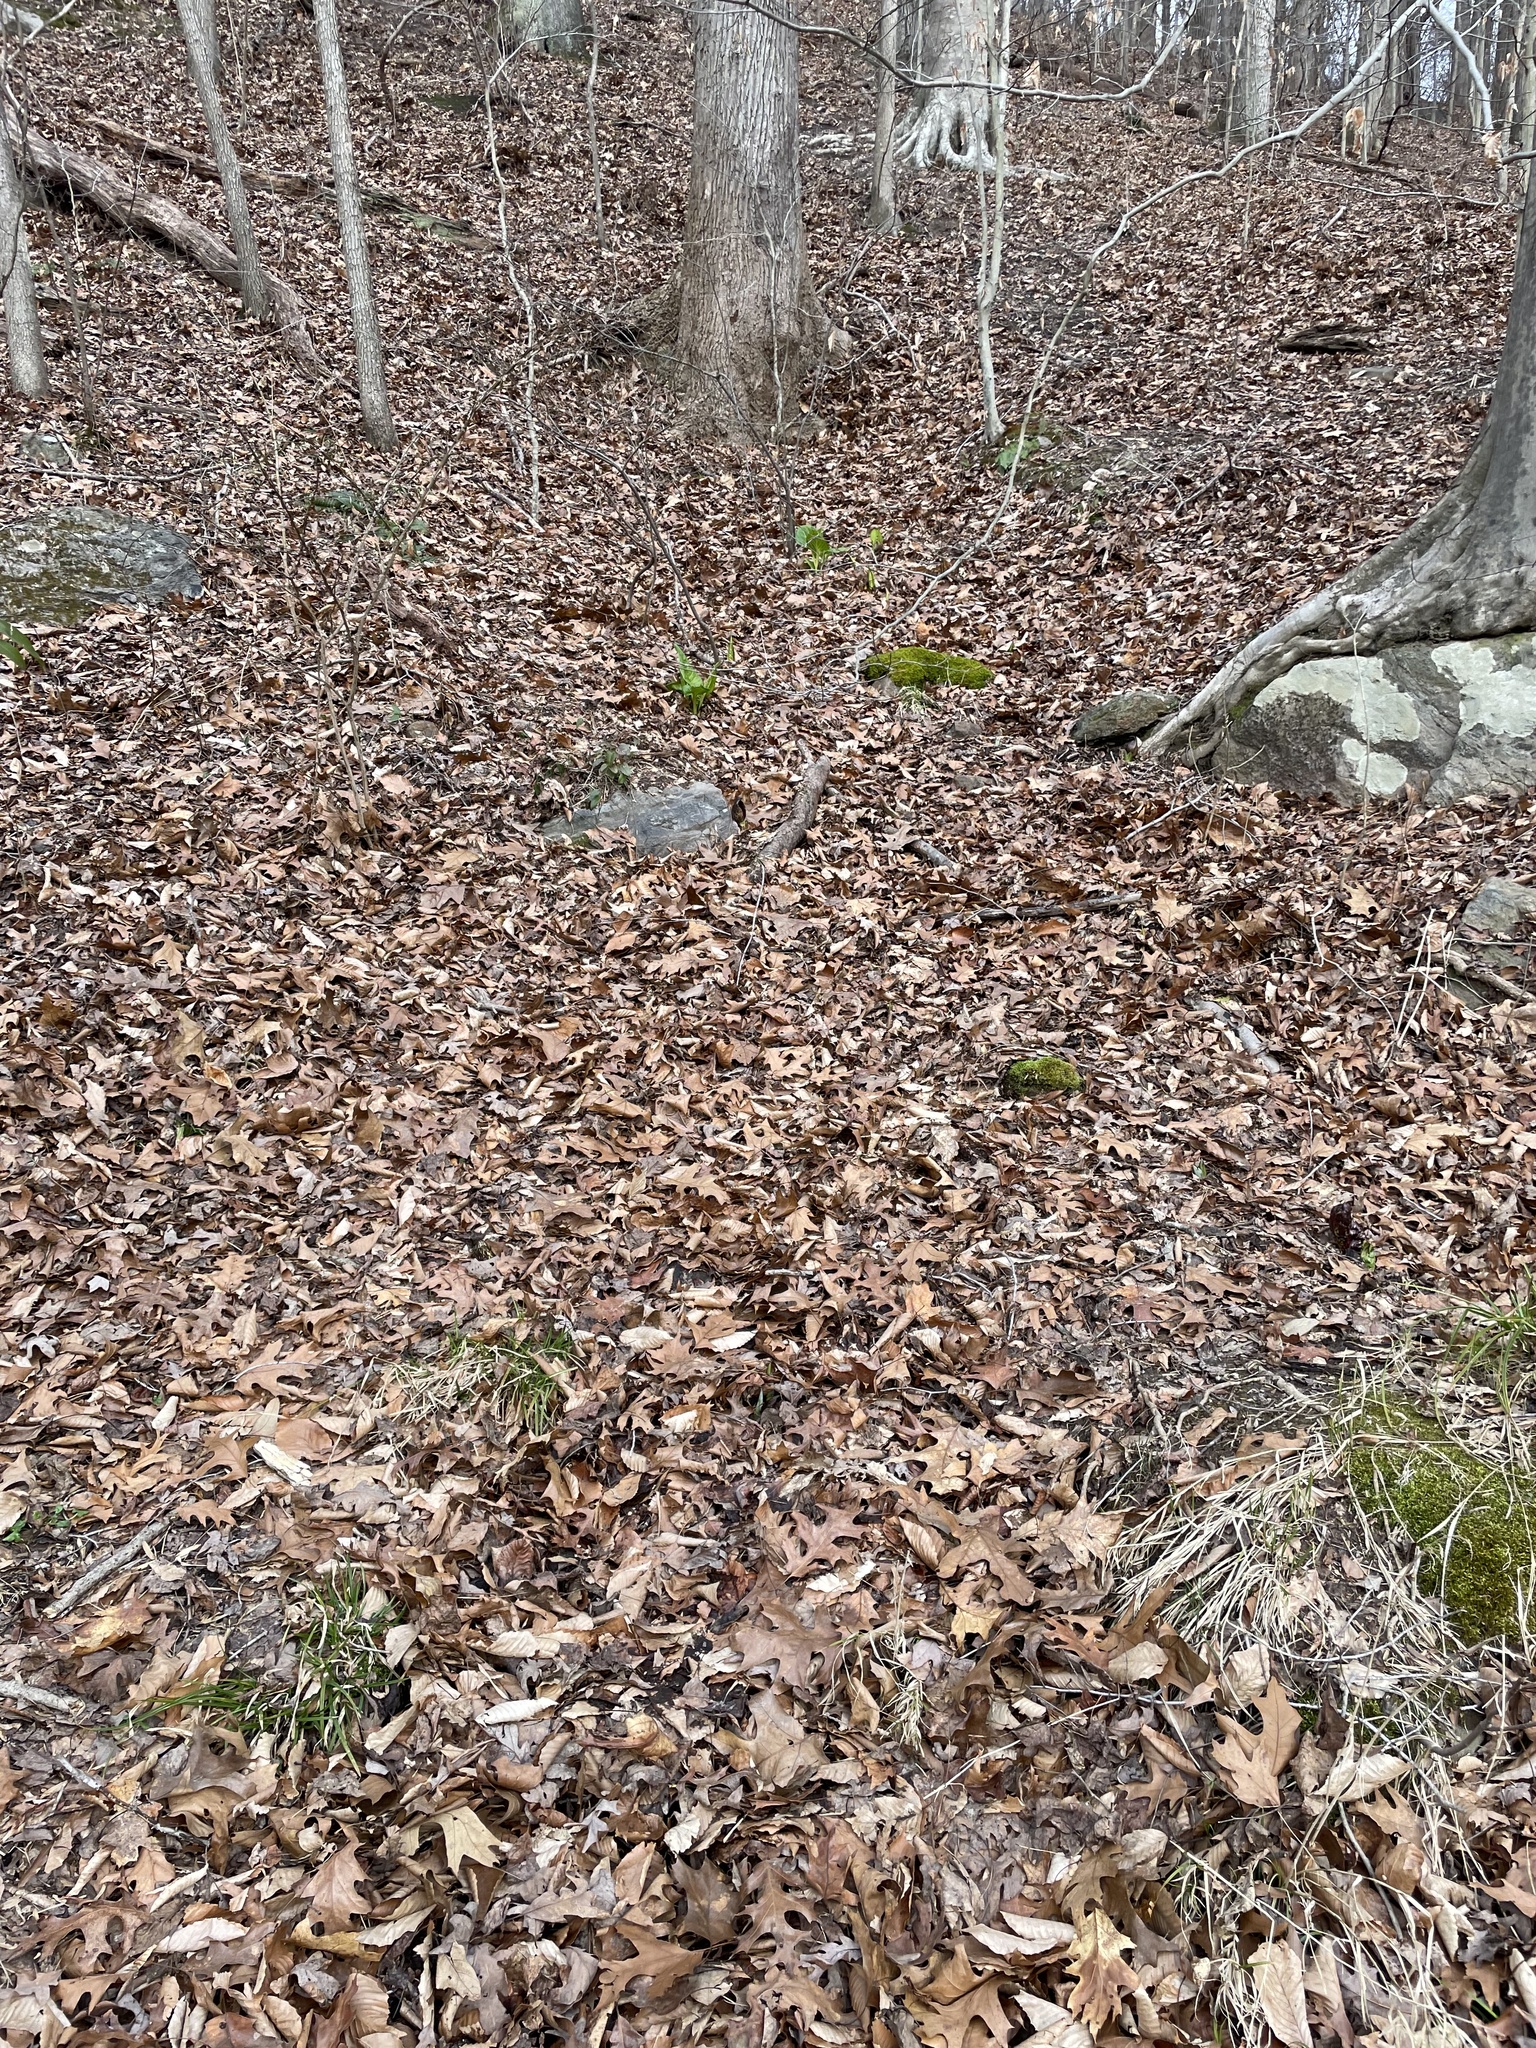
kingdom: Plantae
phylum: Tracheophyta
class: Liliopsida
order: Alismatales
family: Araceae
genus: Symplocarpus
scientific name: Symplocarpus foetidus
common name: Eastern skunk cabbage
